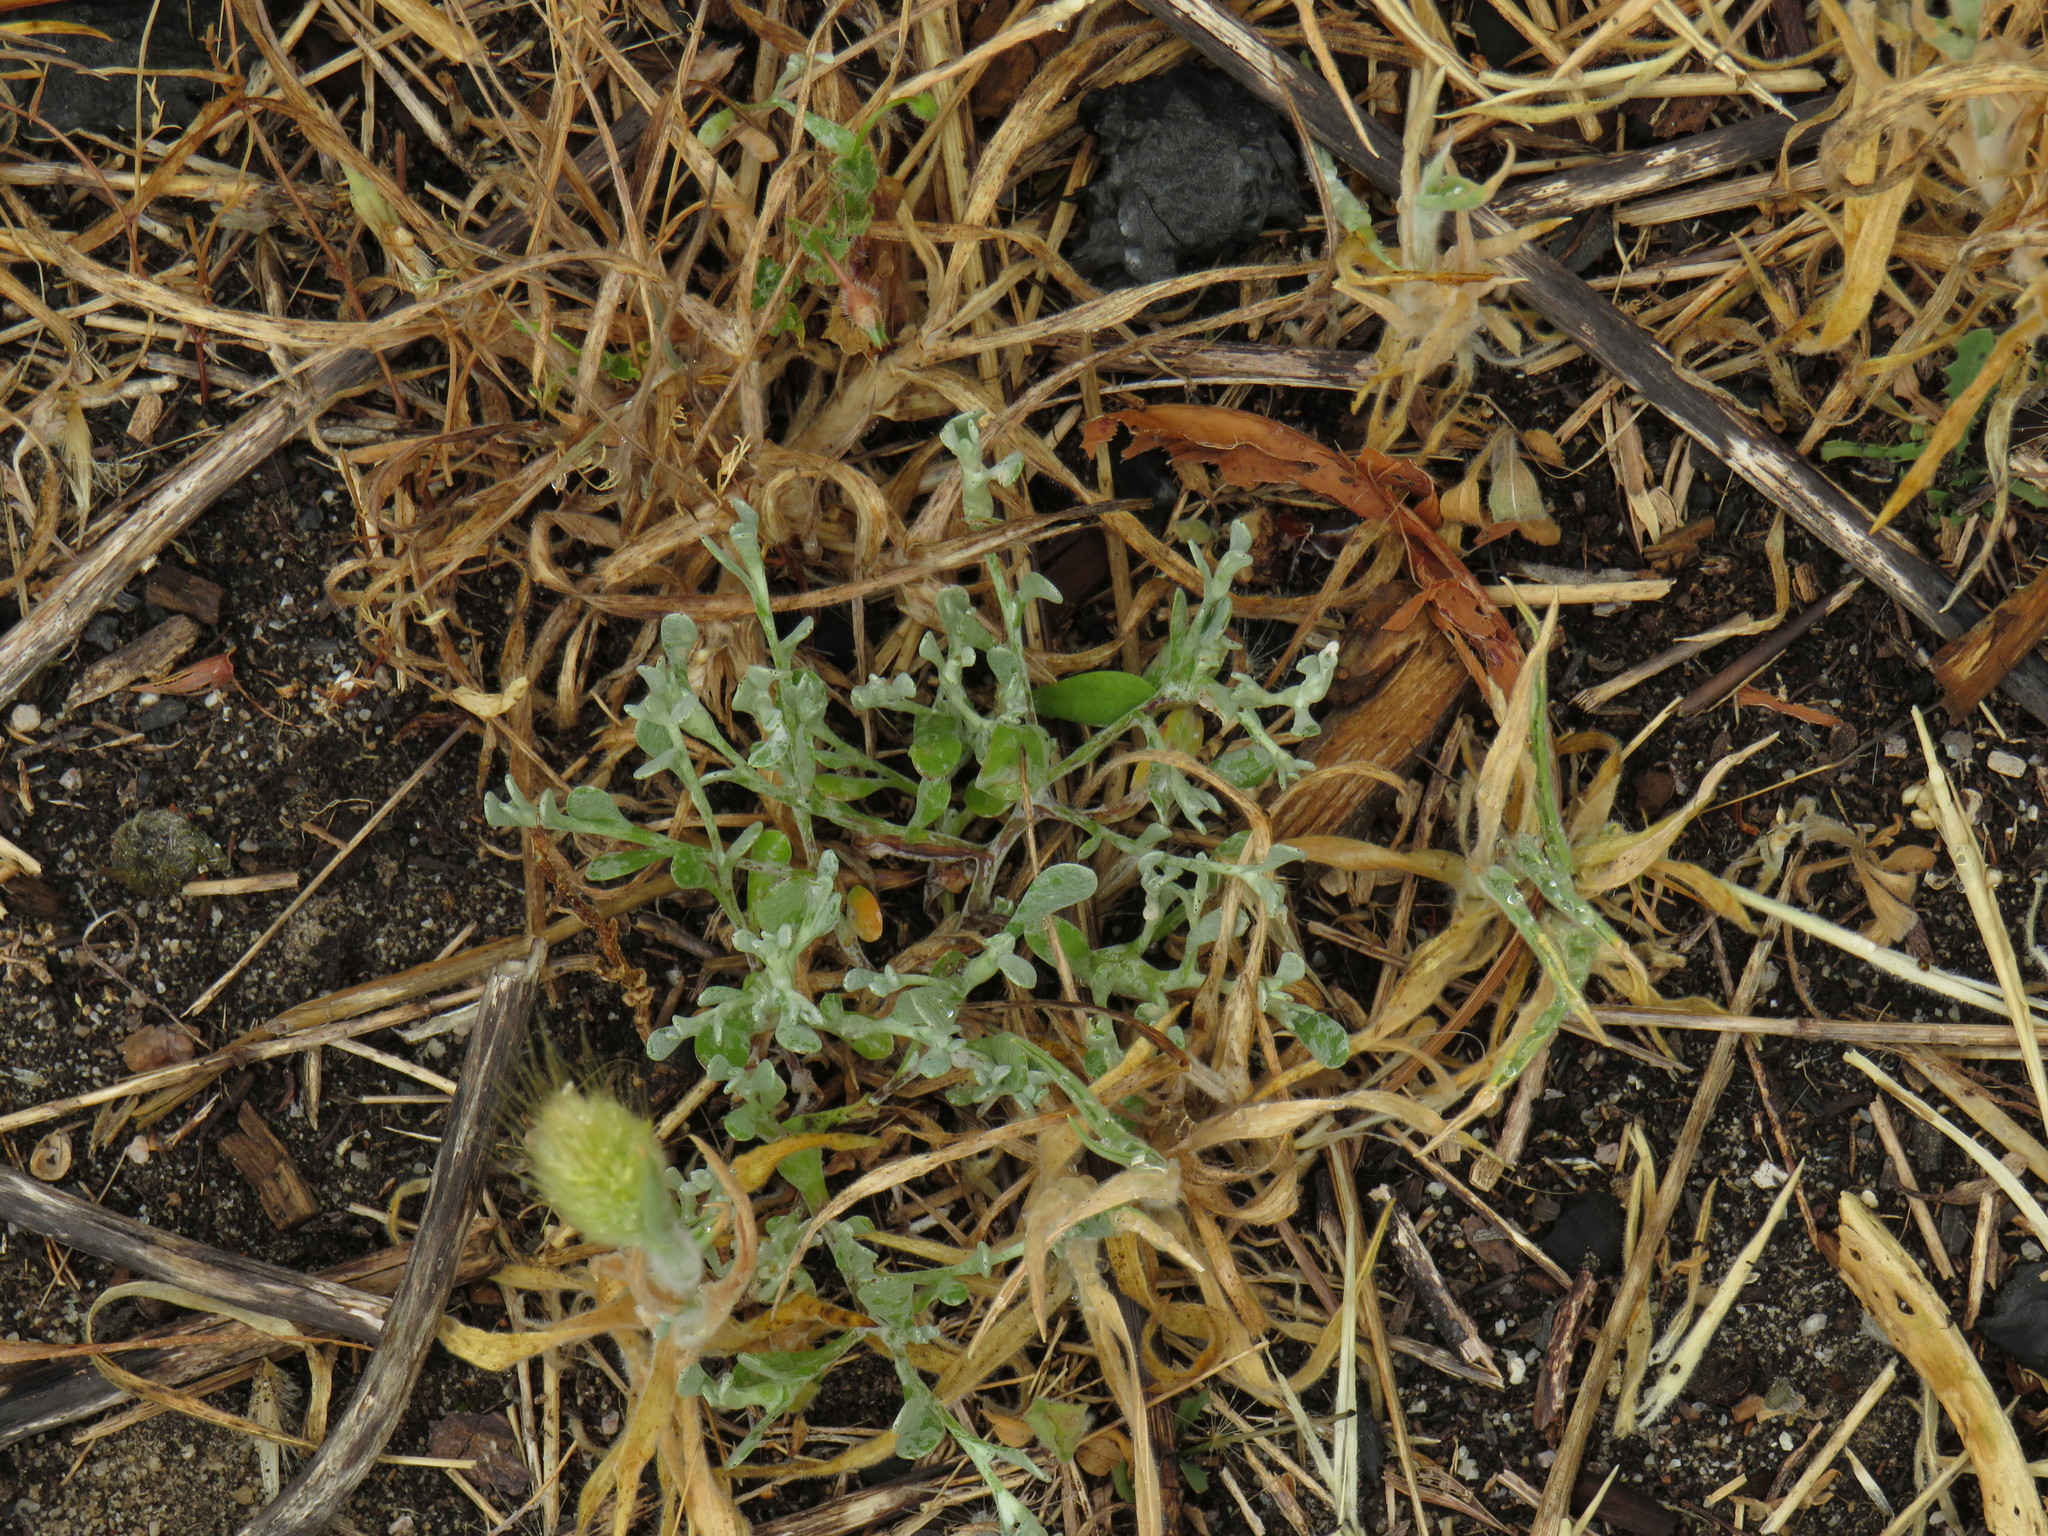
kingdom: Plantae
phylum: Tracheophyta
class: Magnoliopsida
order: Asterales
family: Asteraceae
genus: Helichrysum
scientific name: Helichrysum indicum
